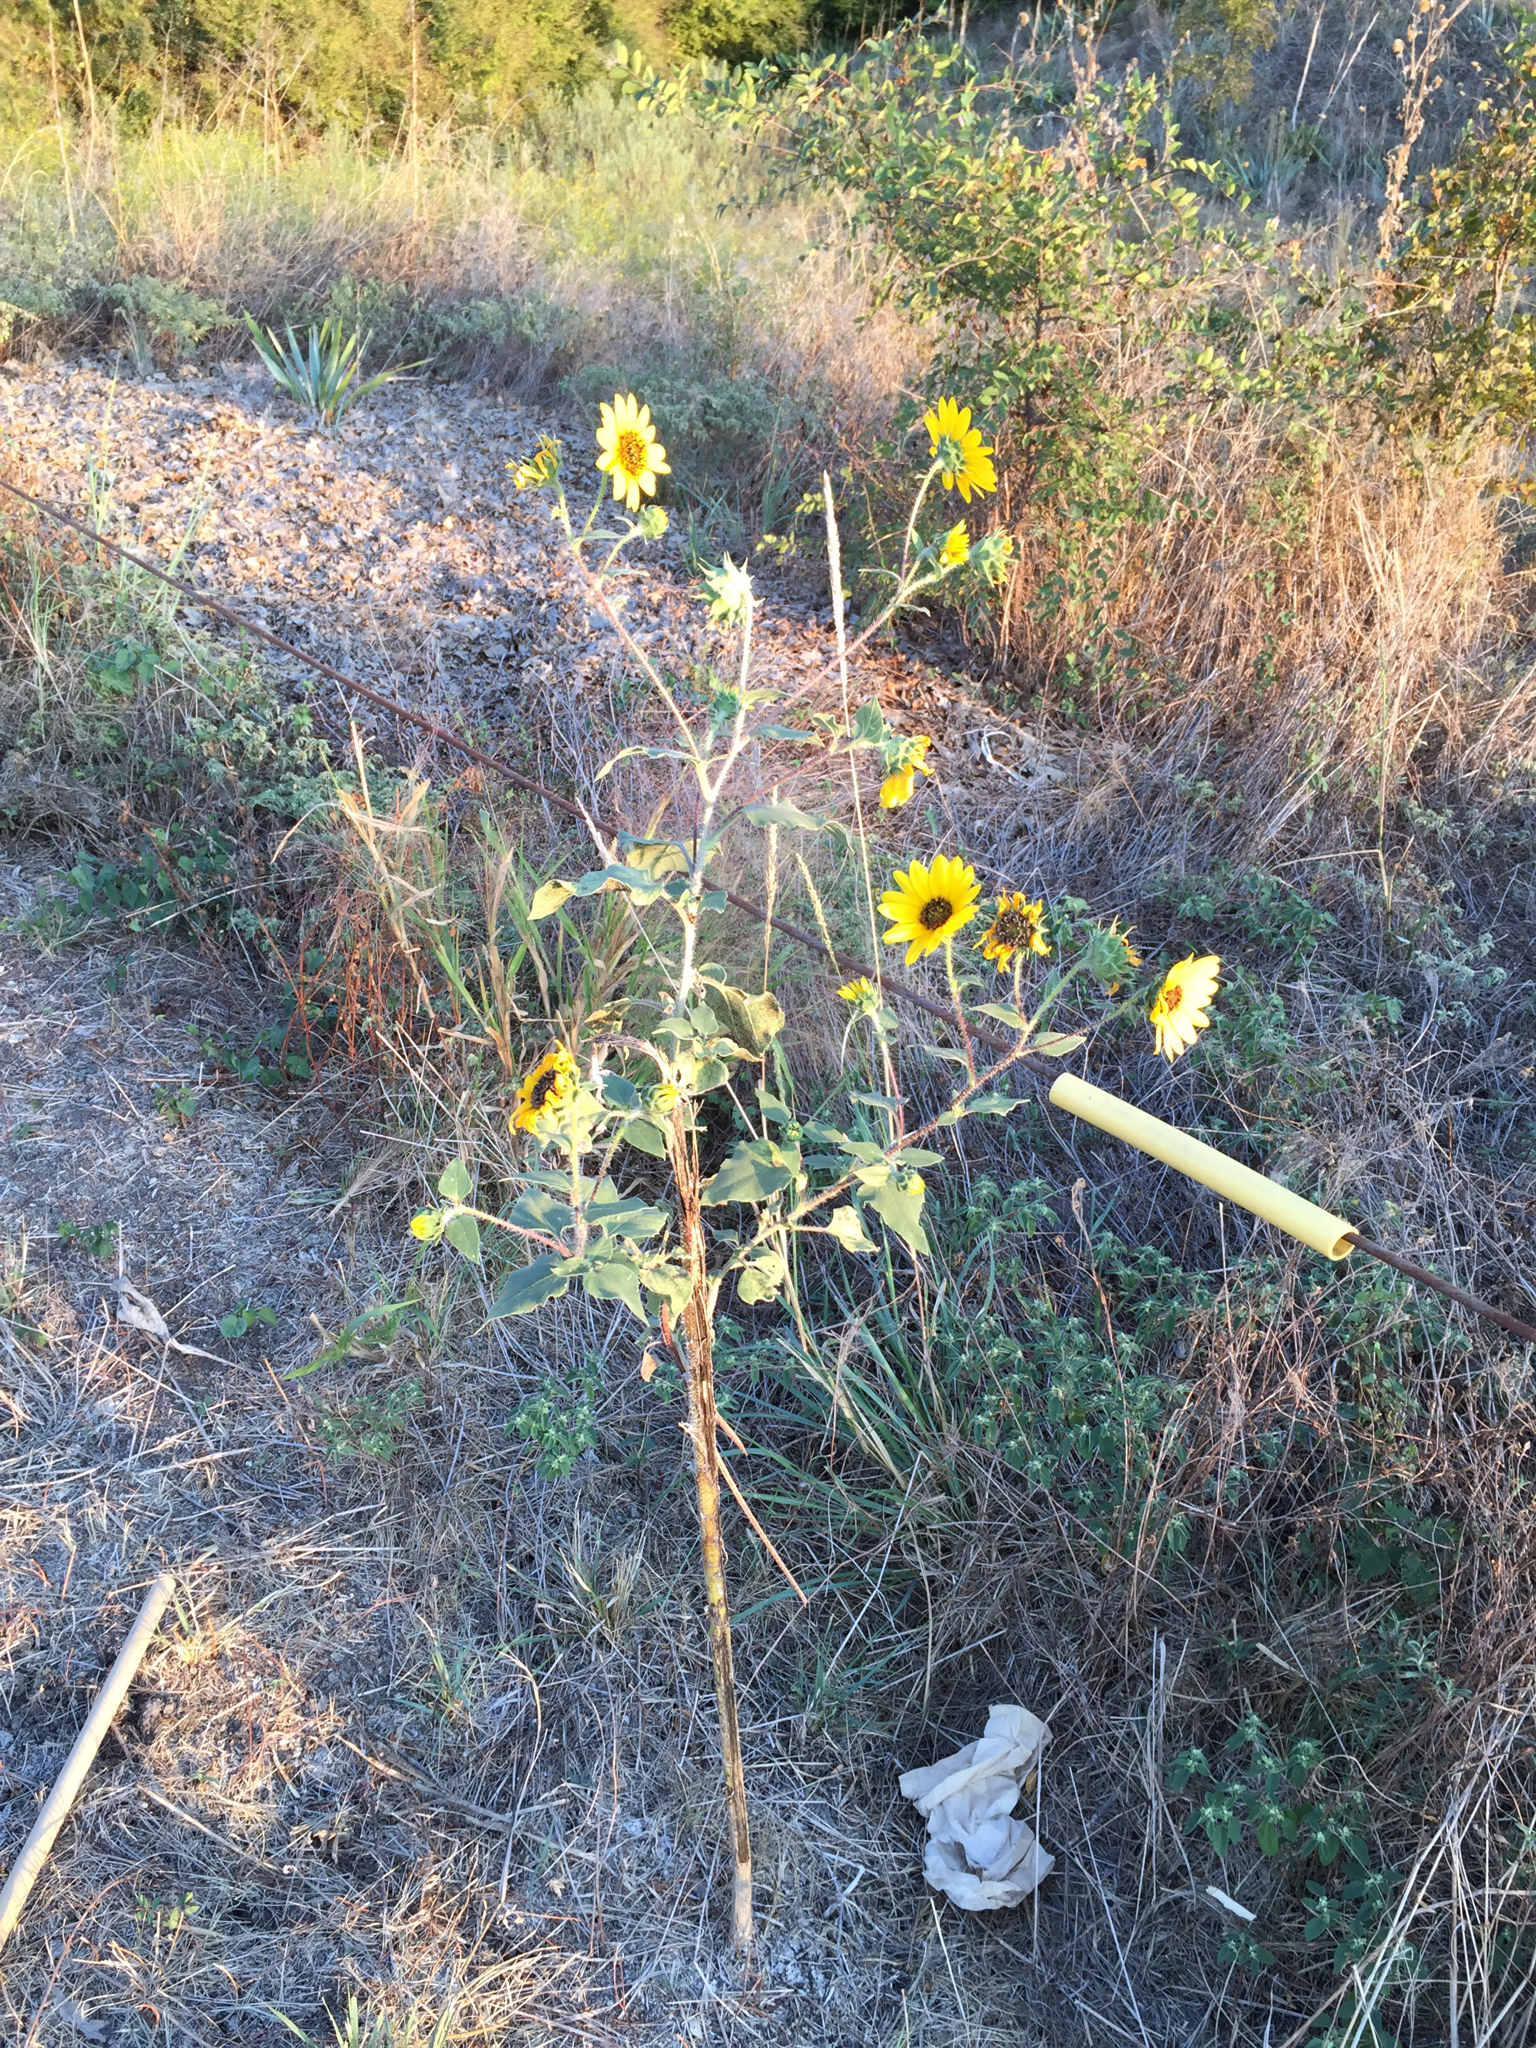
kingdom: Plantae
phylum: Tracheophyta
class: Magnoliopsida
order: Asterales
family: Asteraceae
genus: Helianthus
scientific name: Helianthus annuus
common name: Sunflower
